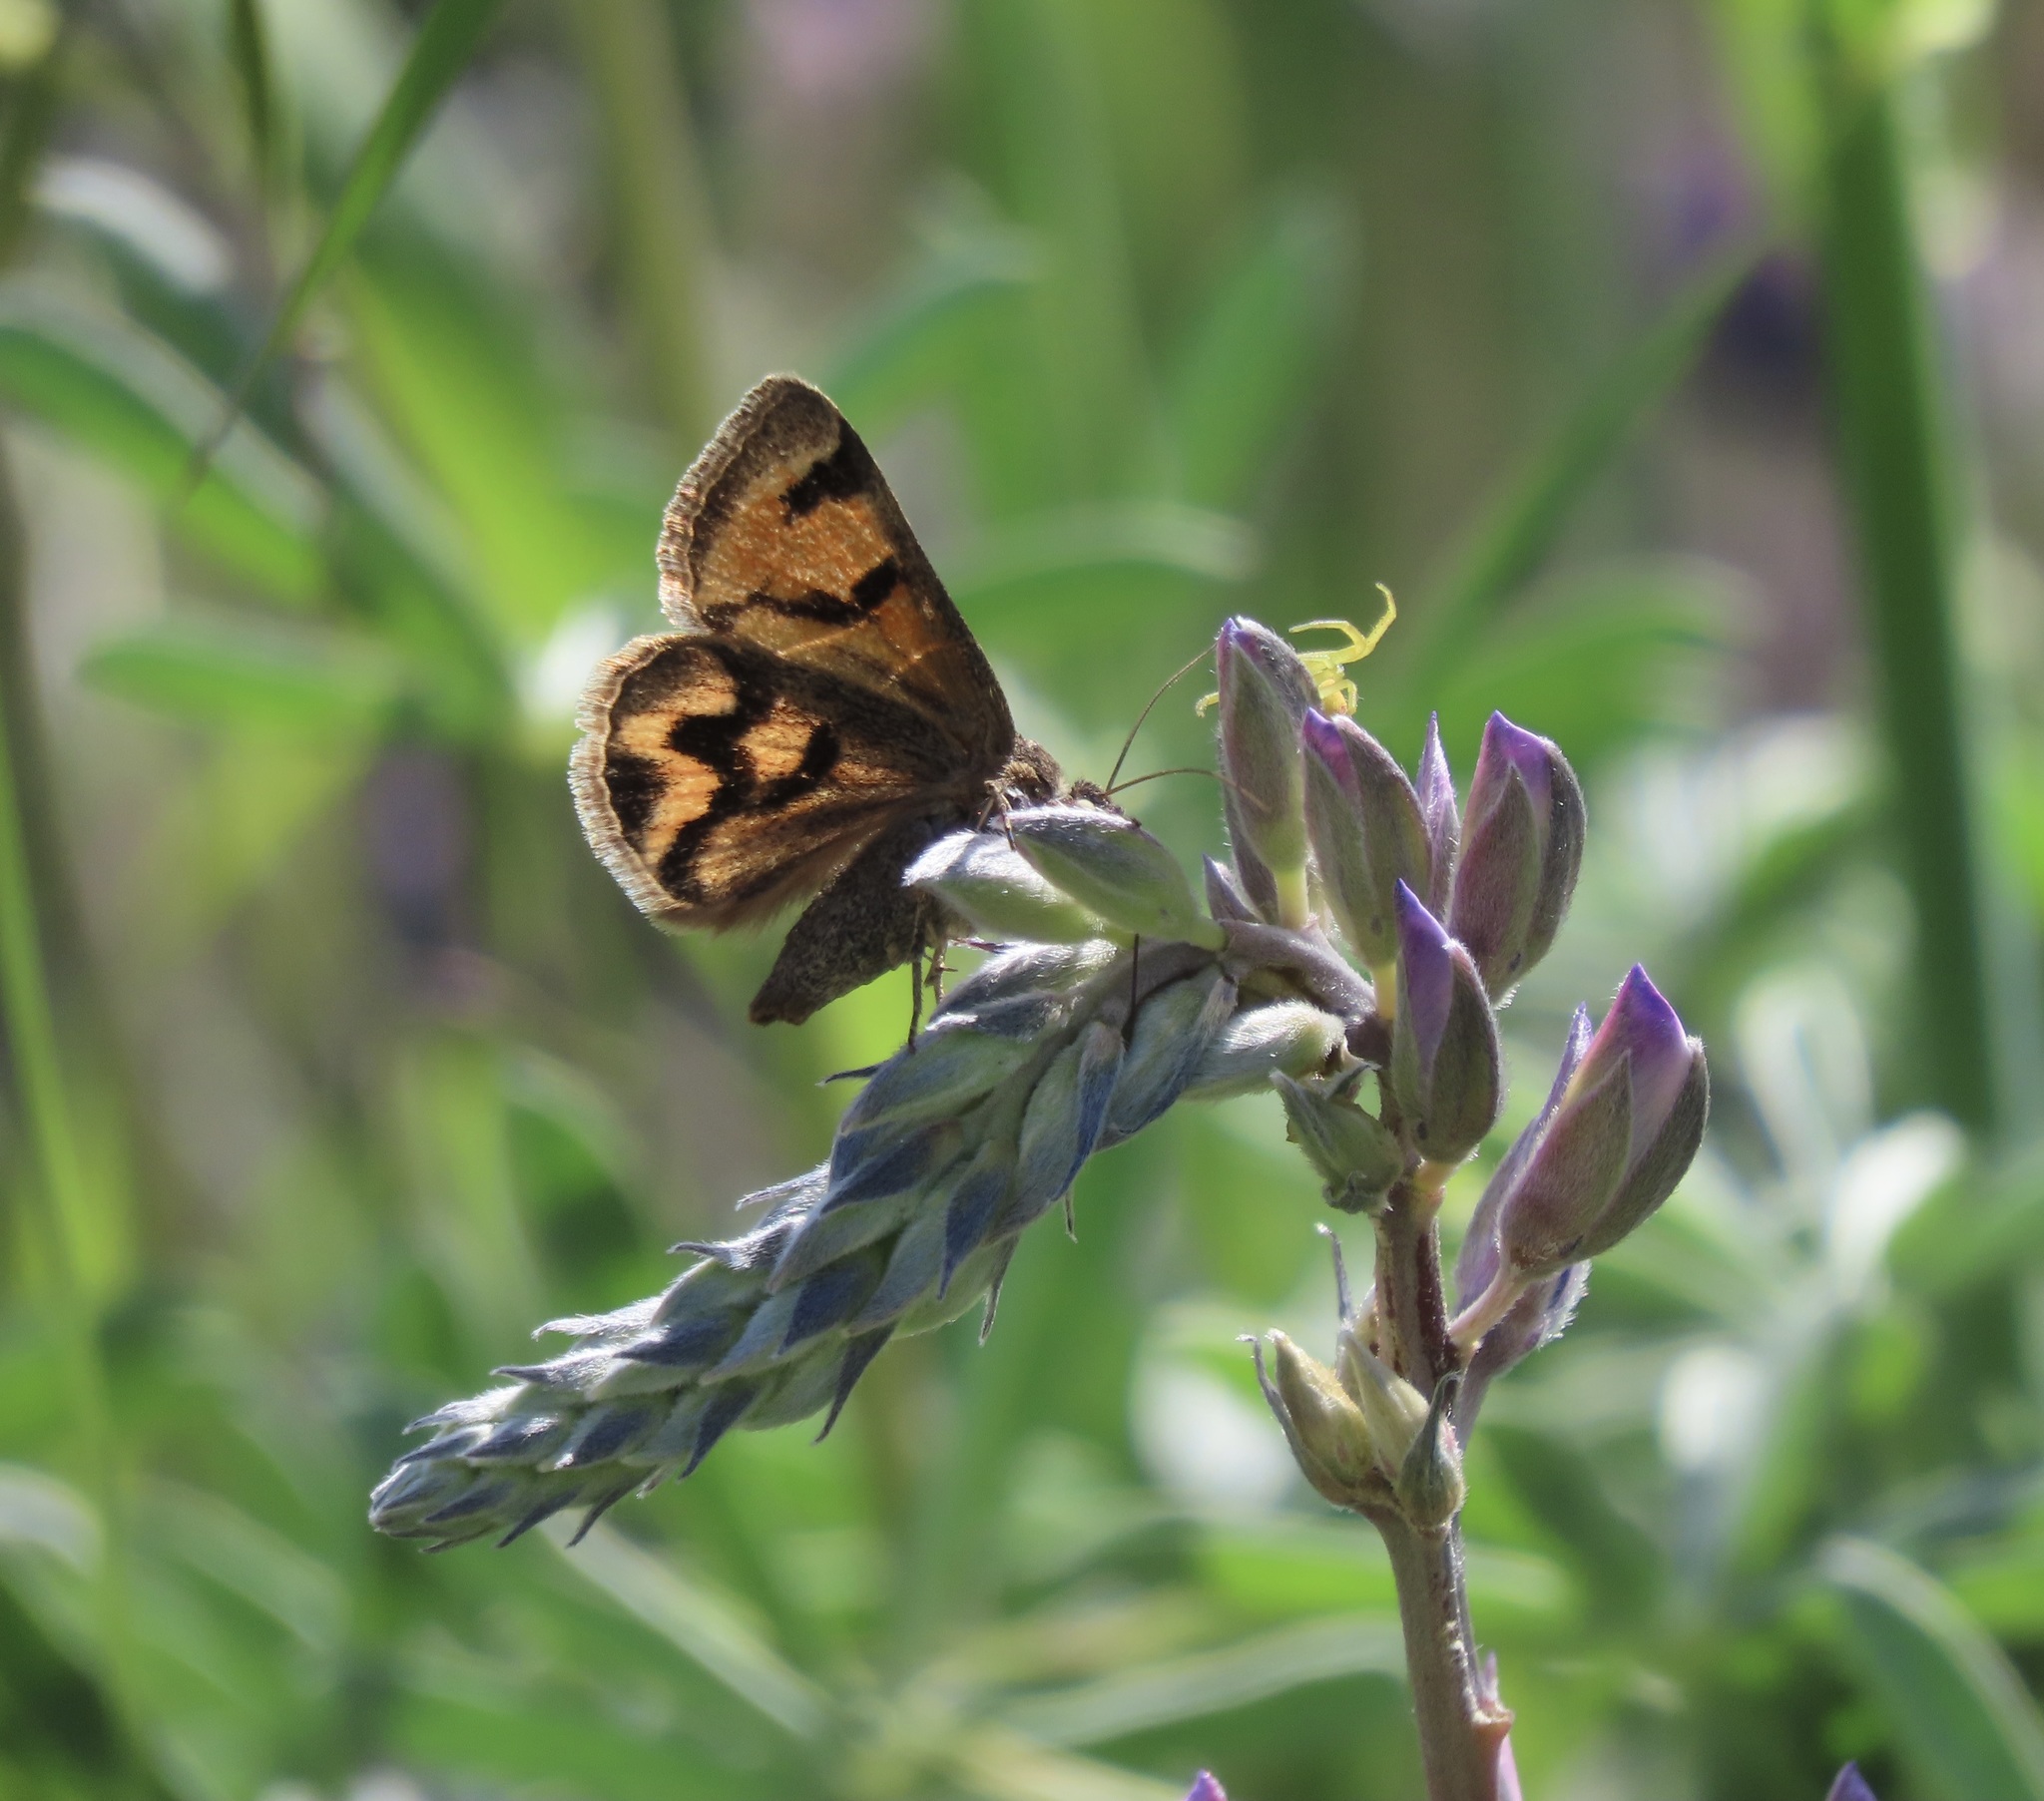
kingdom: Animalia
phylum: Arthropoda
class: Insecta
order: Lepidoptera
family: Erebidae
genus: Drasteria
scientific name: Drasteria edwardsii
